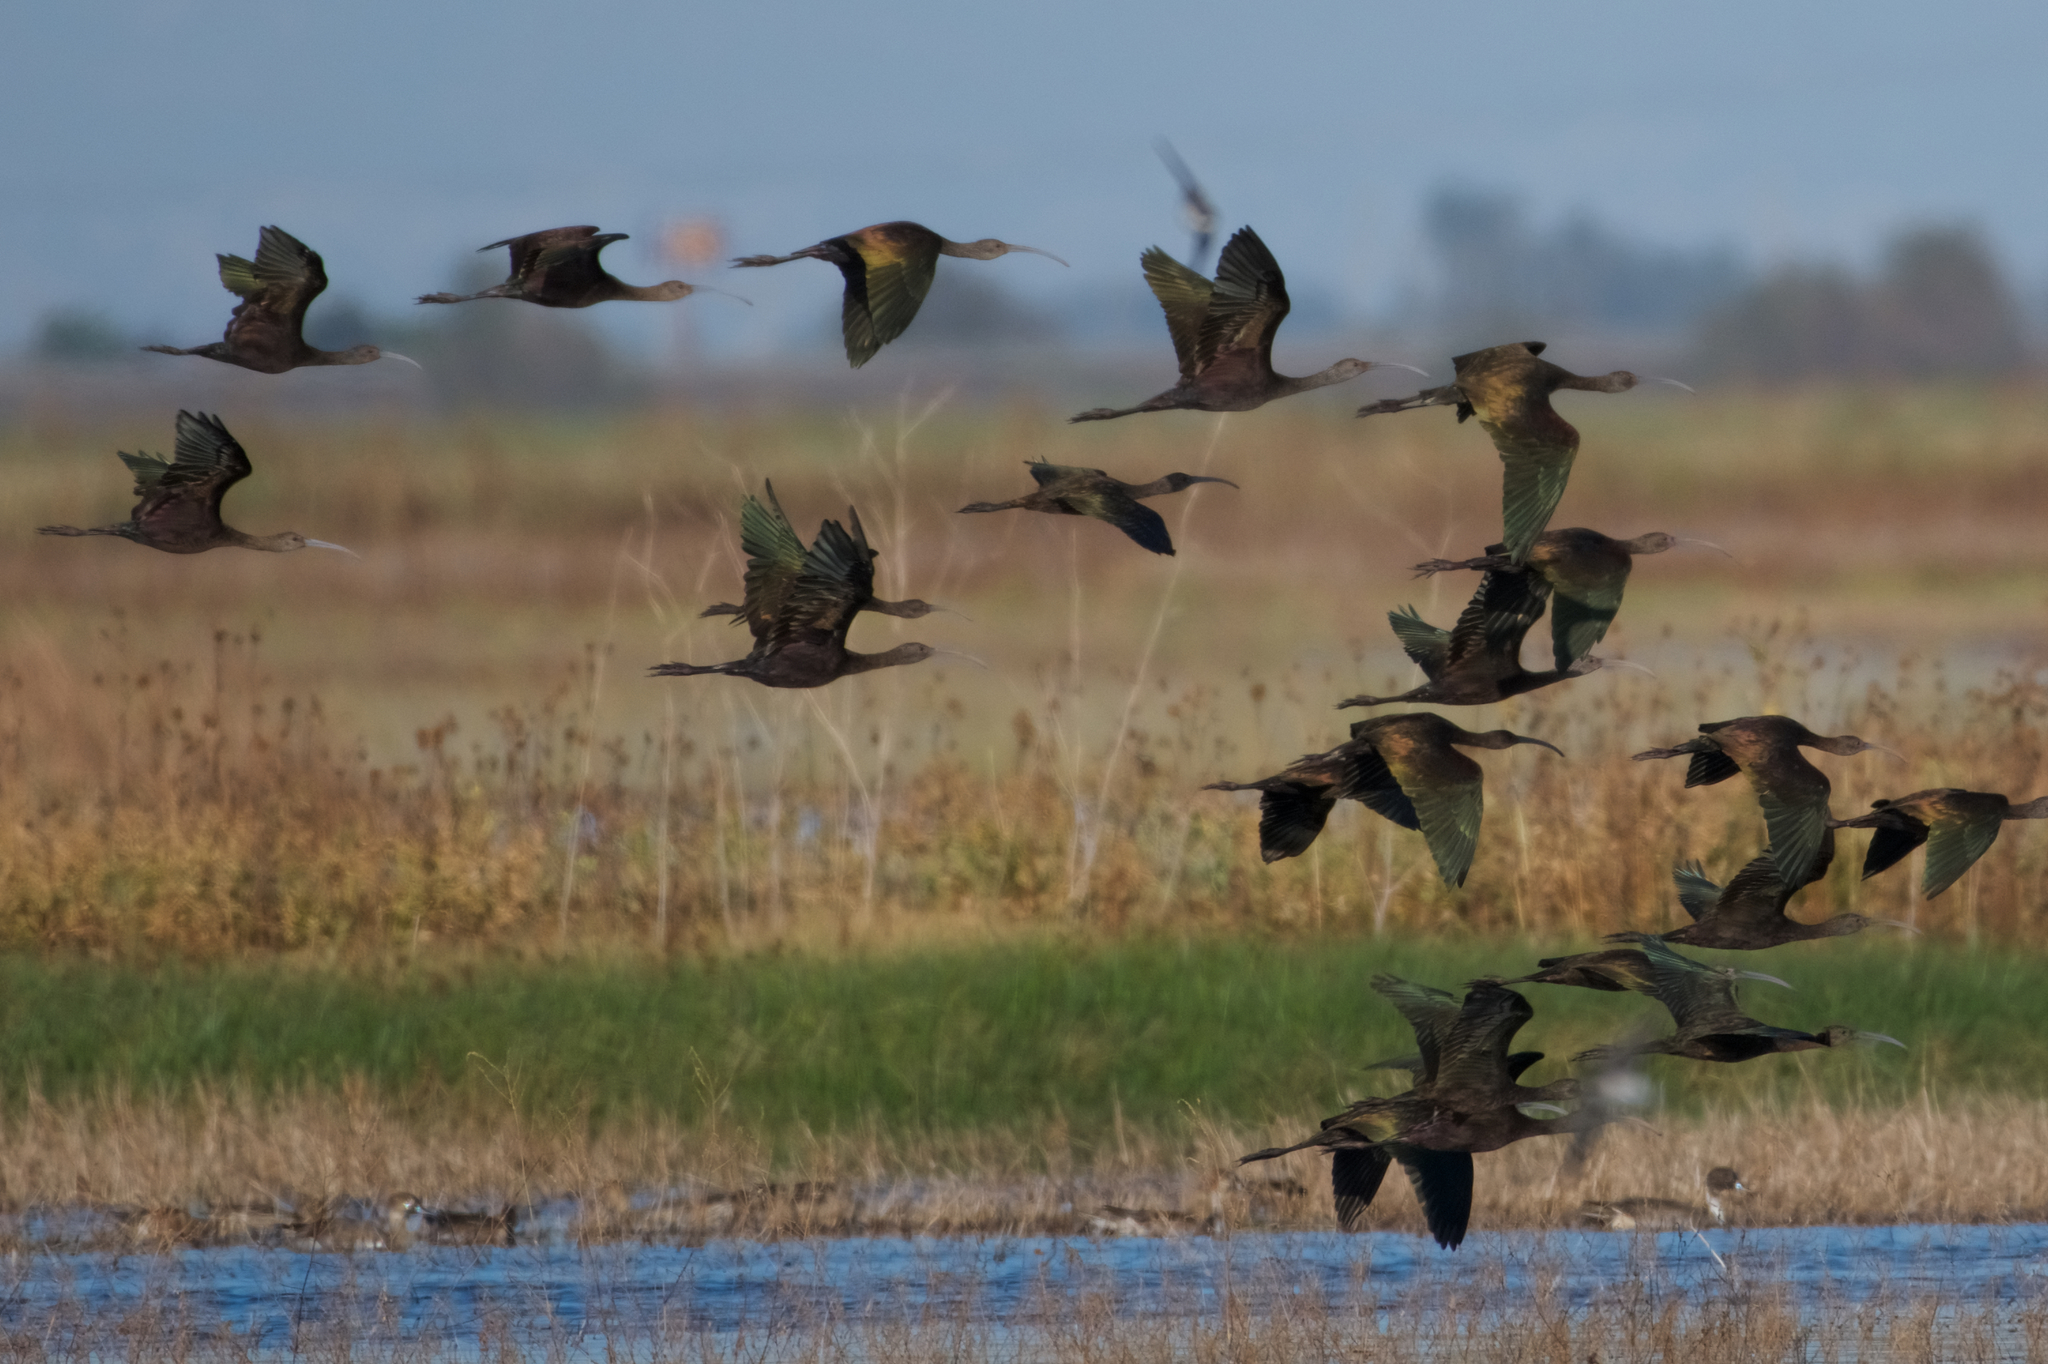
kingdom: Animalia
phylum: Chordata
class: Aves
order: Pelecaniformes
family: Threskiornithidae
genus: Plegadis
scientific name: Plegadis chihi
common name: White-faced ibis
